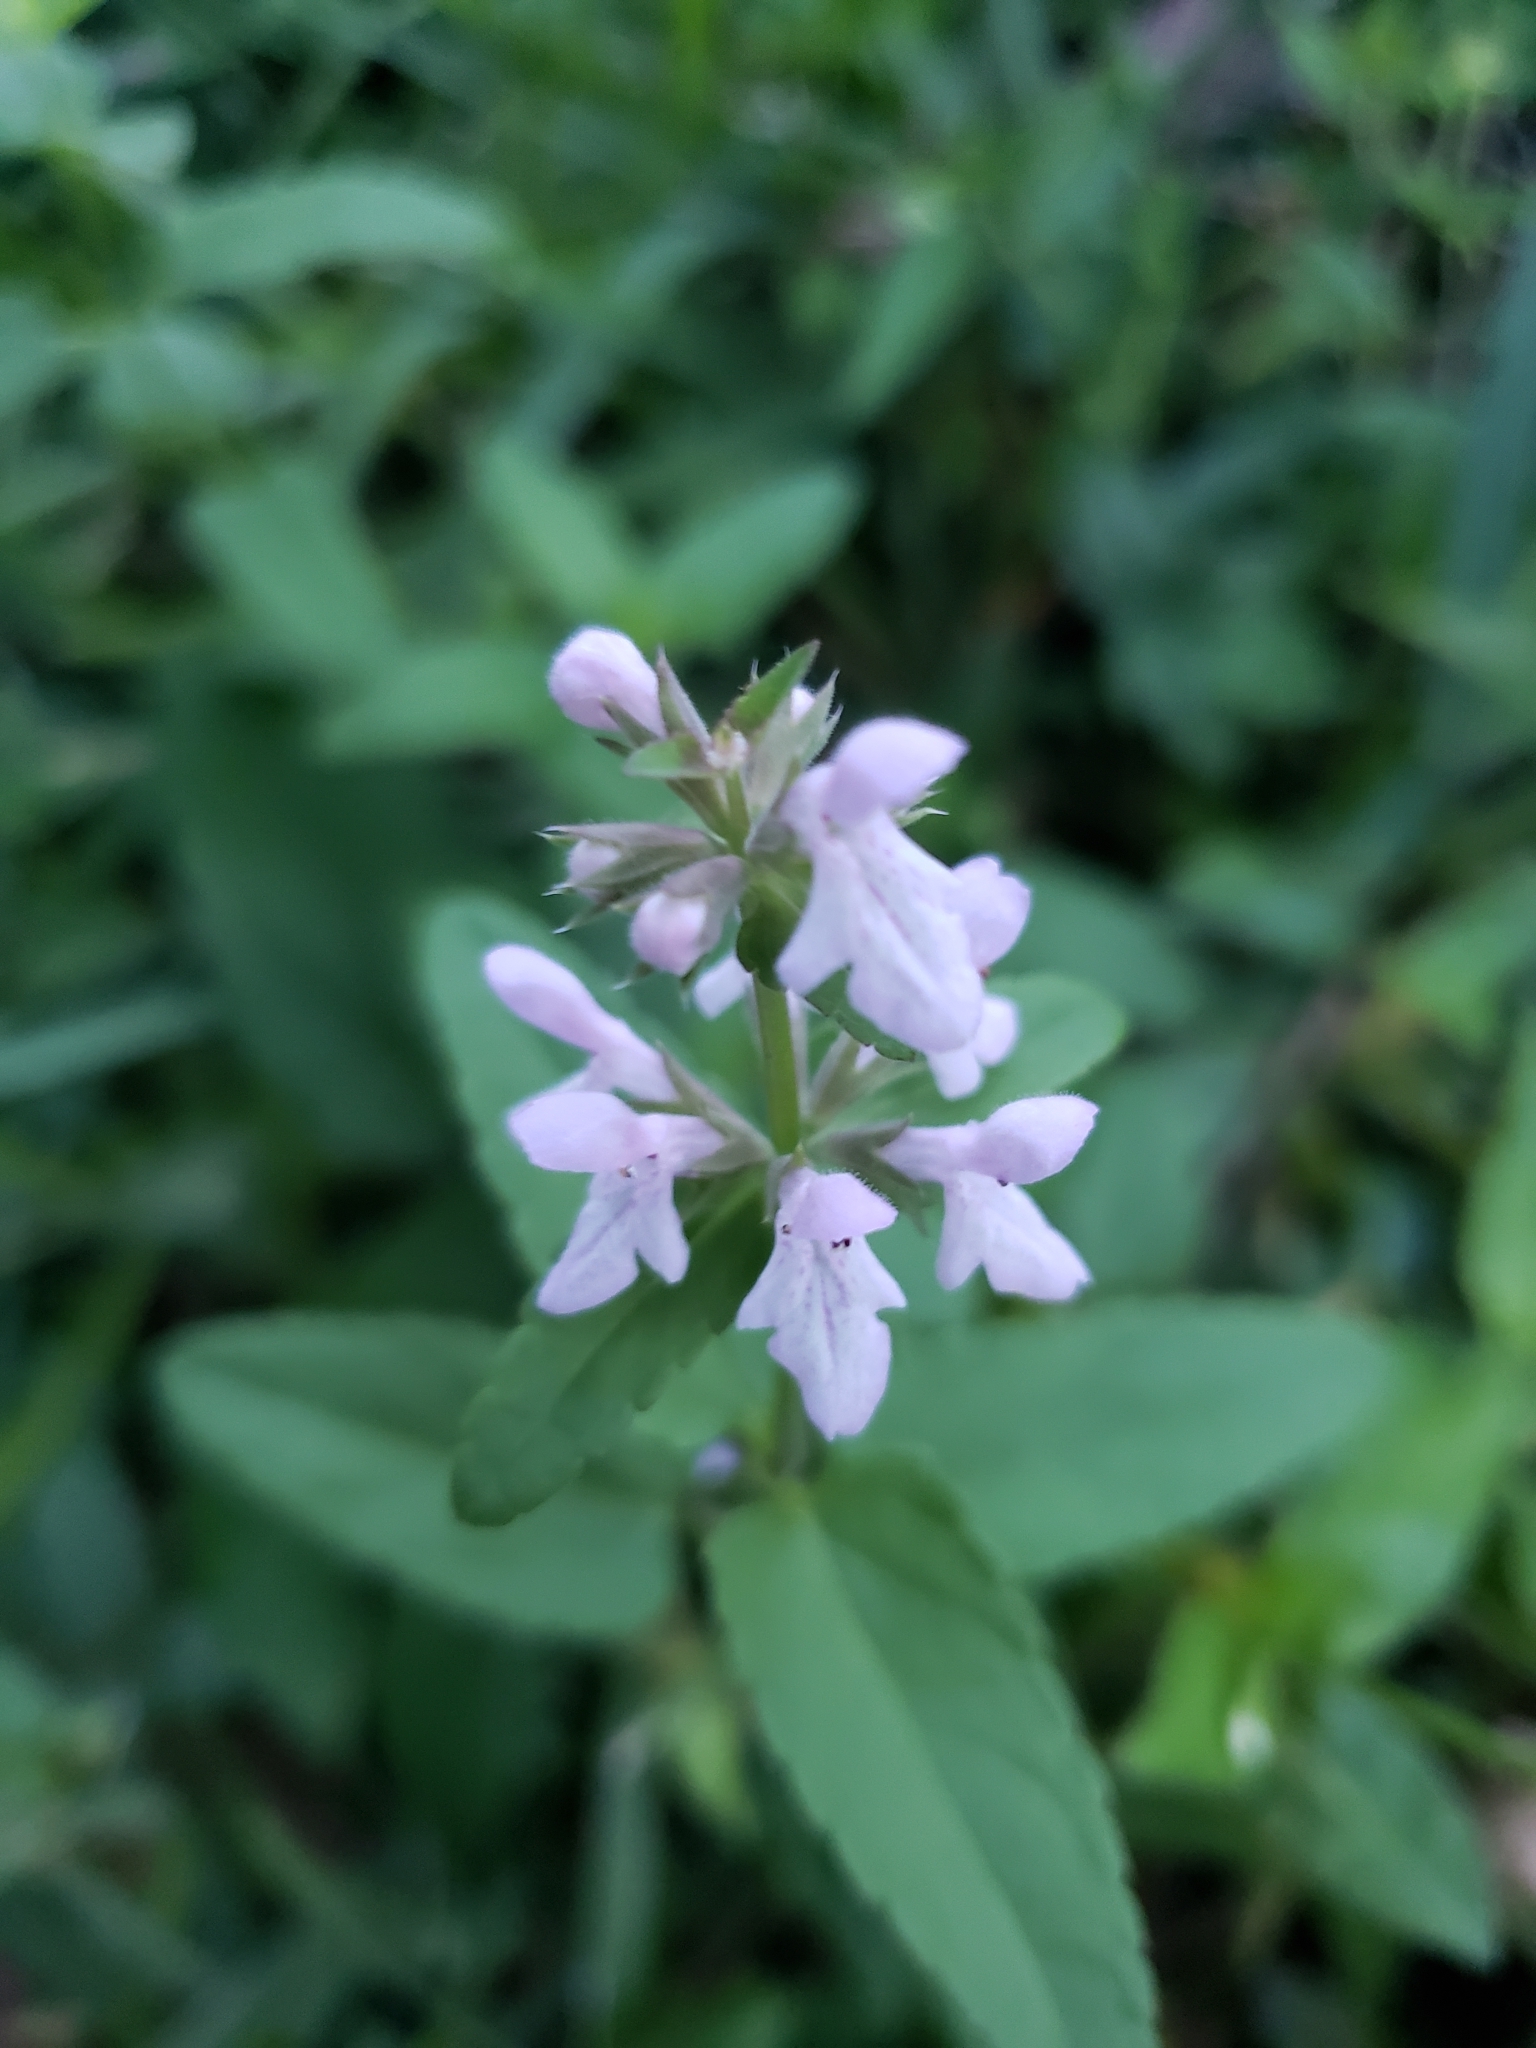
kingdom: Plantae
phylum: Tracheophyta
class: Magnoliopsida
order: Lamiales
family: Lamiaceae
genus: Stachys
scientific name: Stachys floridana
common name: Florida betony
